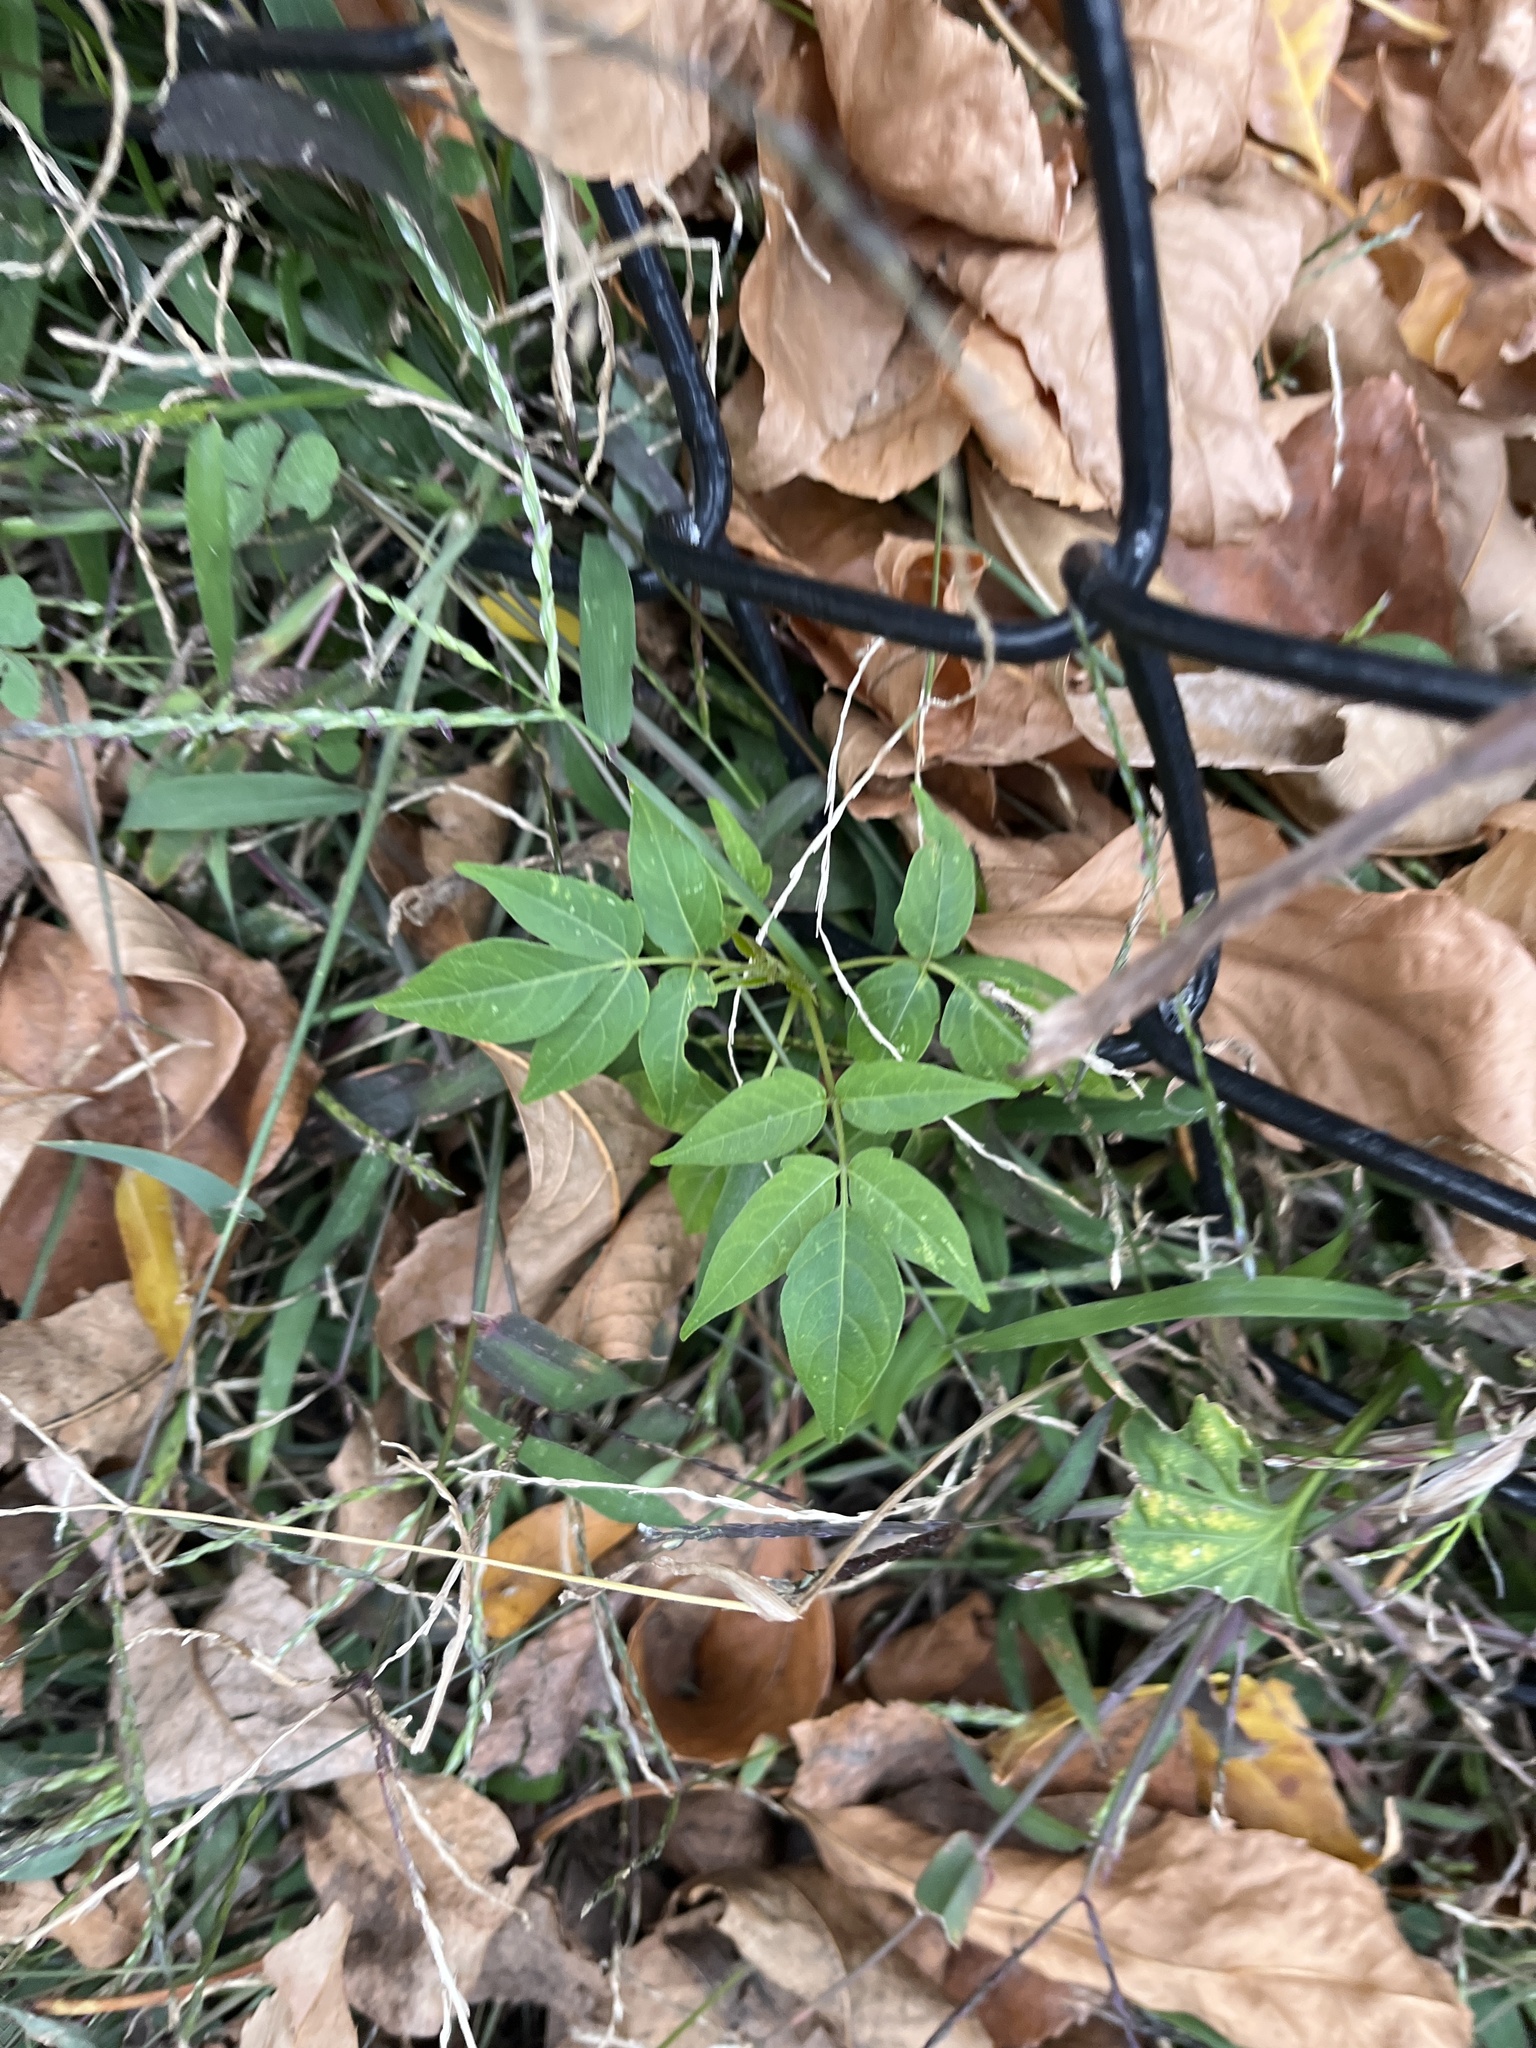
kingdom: Plantae
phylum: Tracheophyta
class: Magnoliopsida
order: Sapindales
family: Simaroubaceae
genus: Ailanthus
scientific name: Ailanthus altissima
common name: Tree-of-heaven
